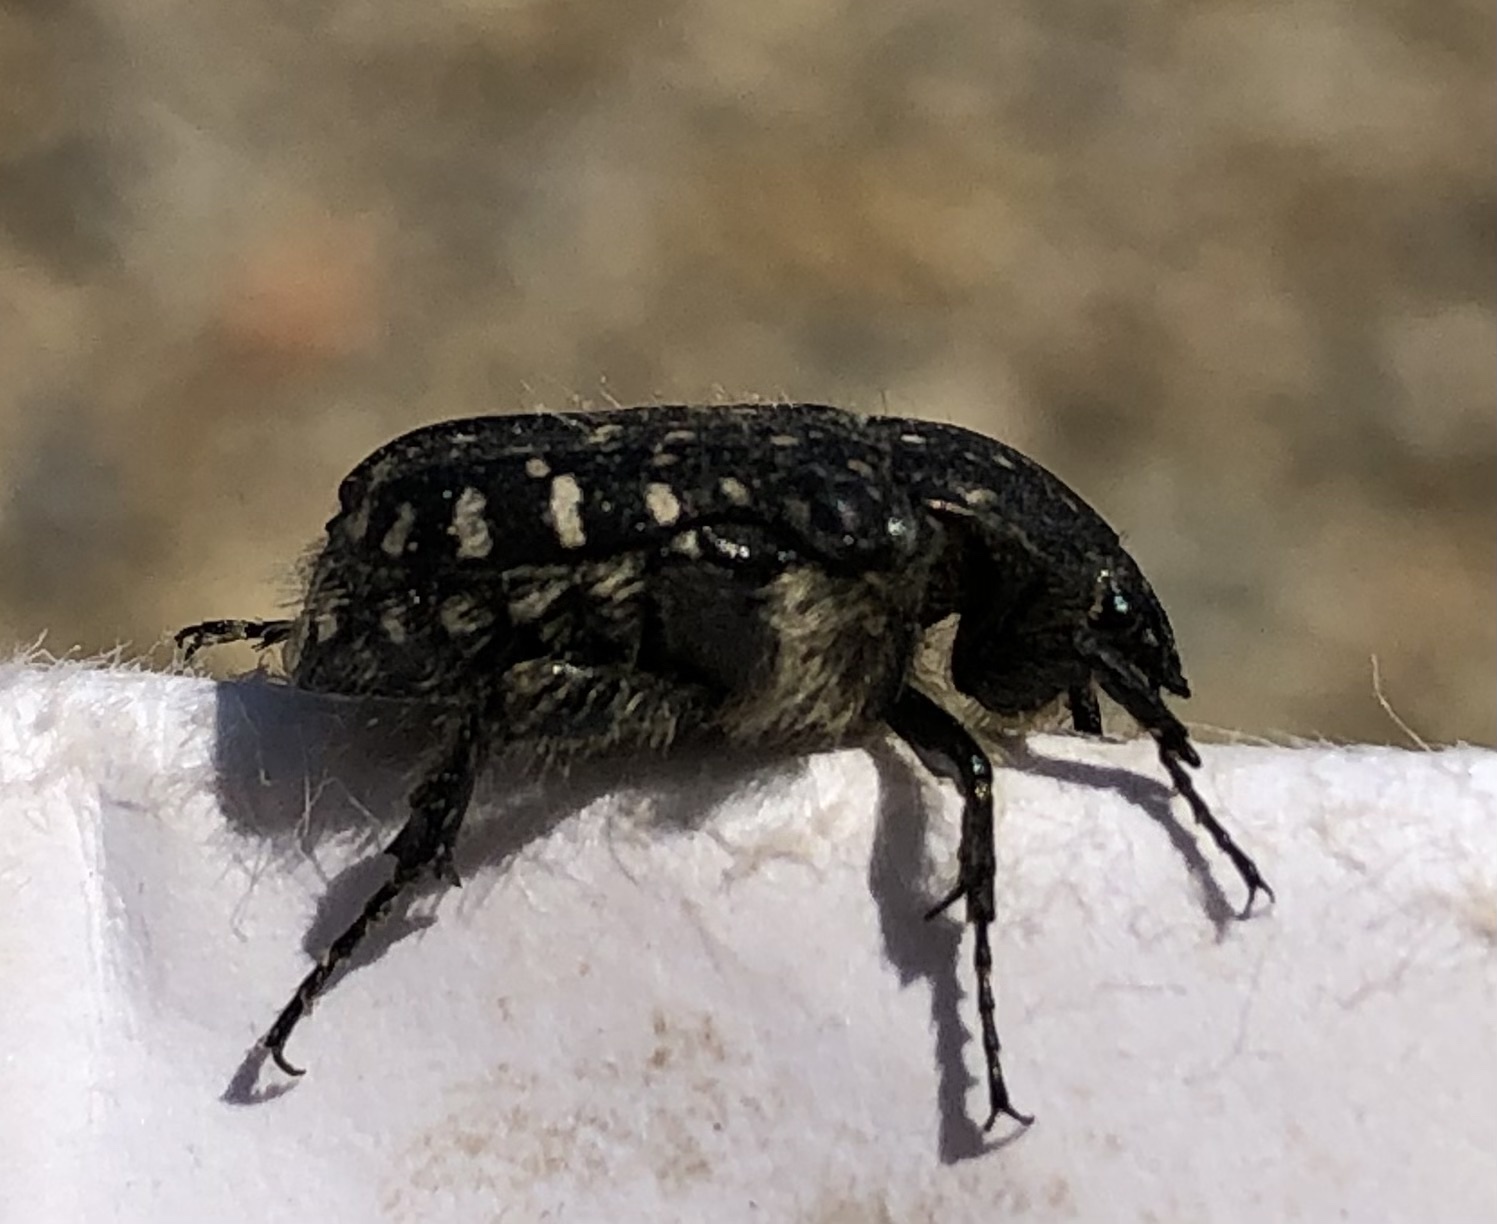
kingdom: Animalia
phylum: Arthropoda
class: Insecta
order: Coleoptera
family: Scarabaeidae
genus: Oxythyrea
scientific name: Oxythyrea funesta
